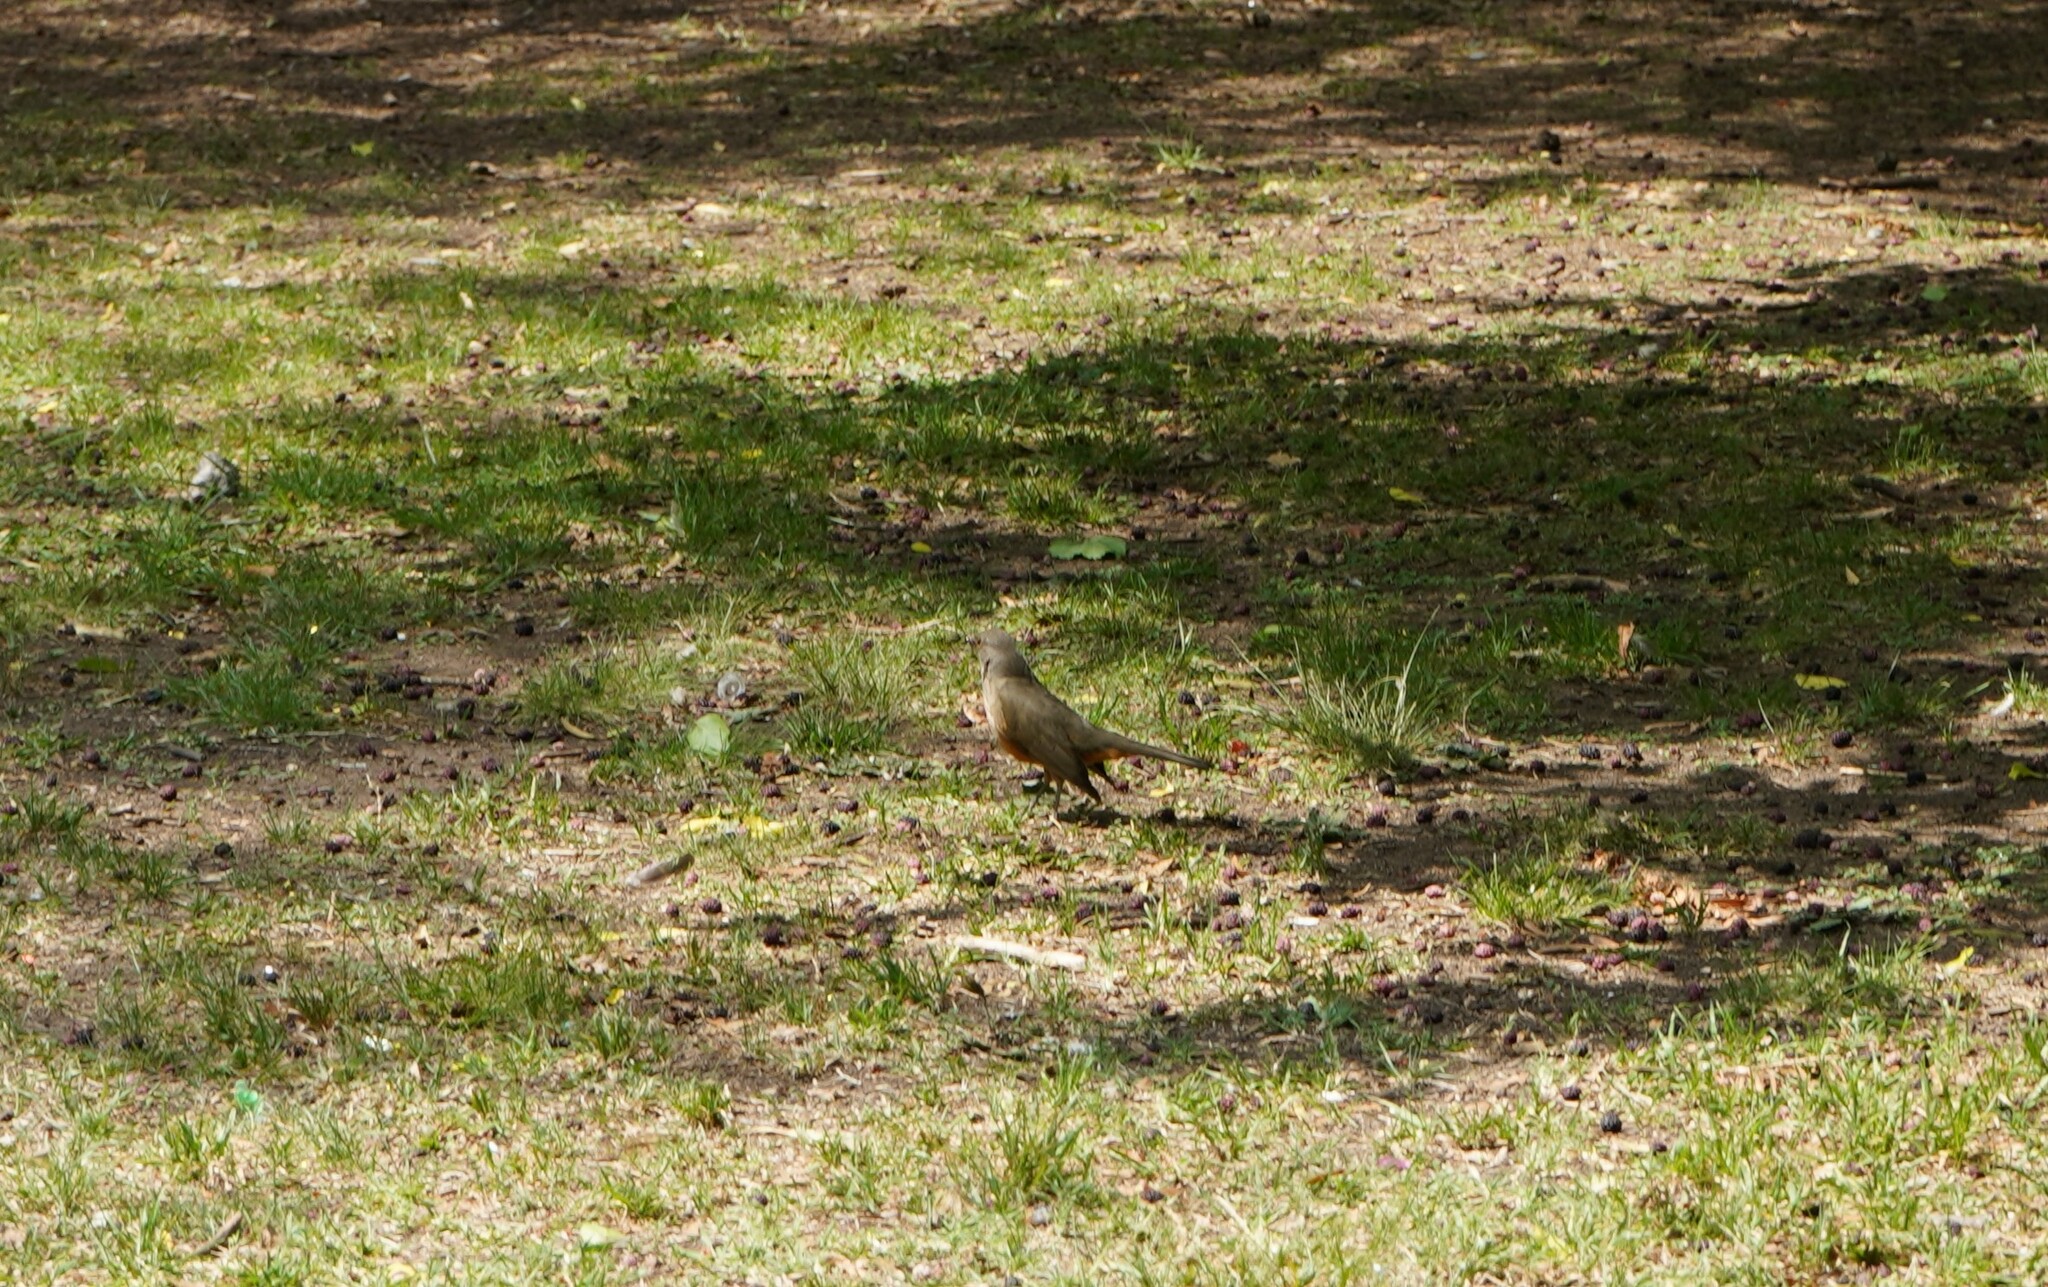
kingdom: Animalia
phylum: Chordata
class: Aves
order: Passeriformes
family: Turdidae
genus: Turdus
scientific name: Turdus rufiventris
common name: Rufous-bellied thrush
